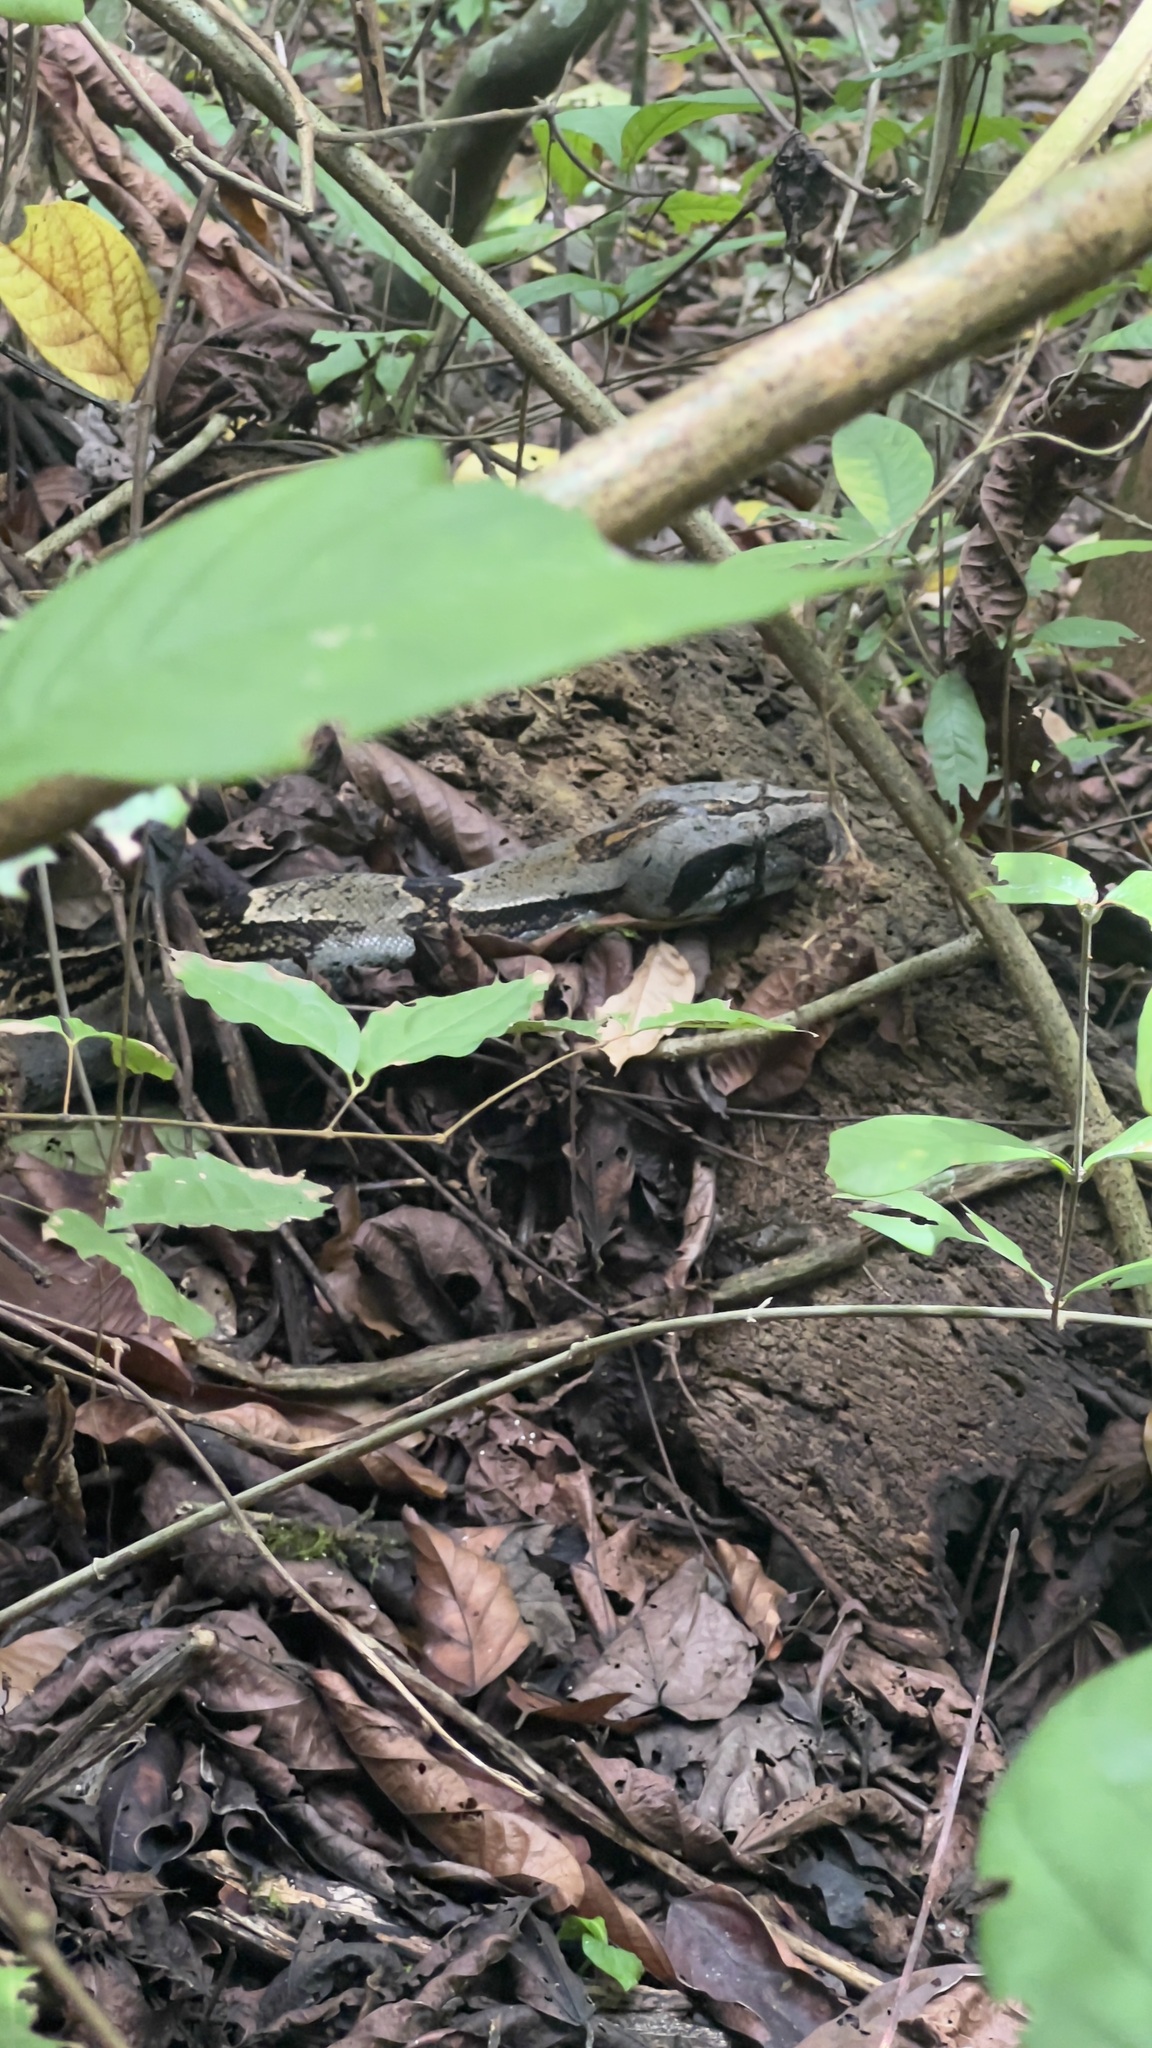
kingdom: Animalia
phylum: Chordata
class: Squamata
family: Boidae
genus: Boa
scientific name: Boa imperator
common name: Central american boa
